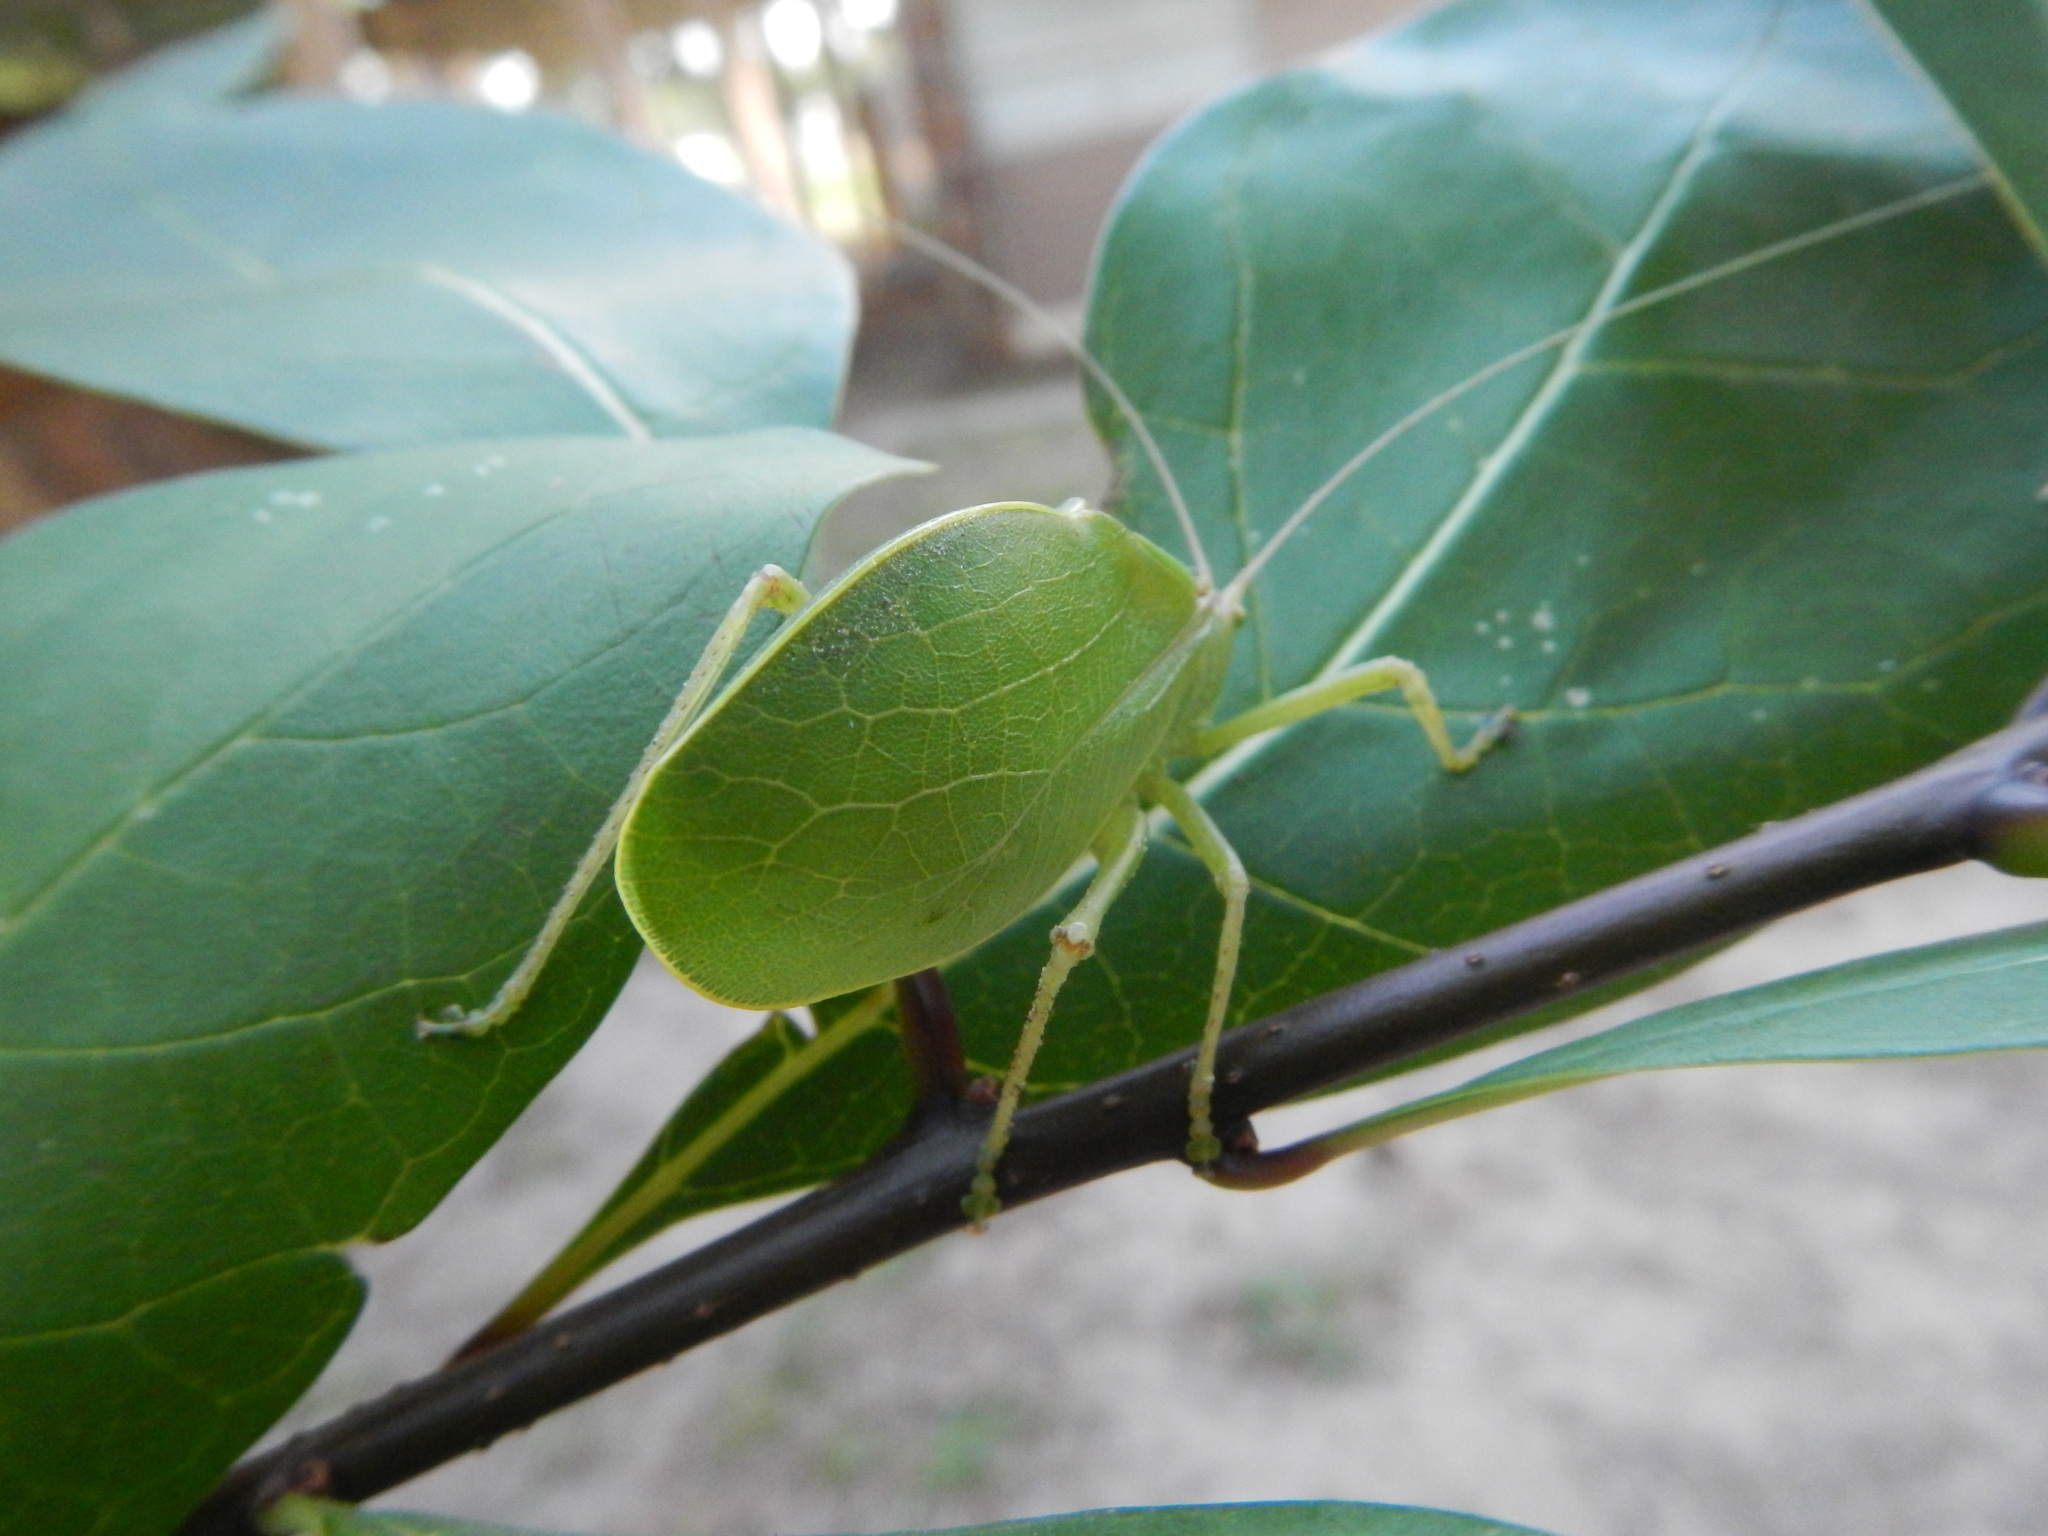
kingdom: Animalia
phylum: Arthropoda
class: Insecta
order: Orthoptera
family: Tettigoniidae
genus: Pterophylla
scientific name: Pterophylla camellifolia
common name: Common true katydid
